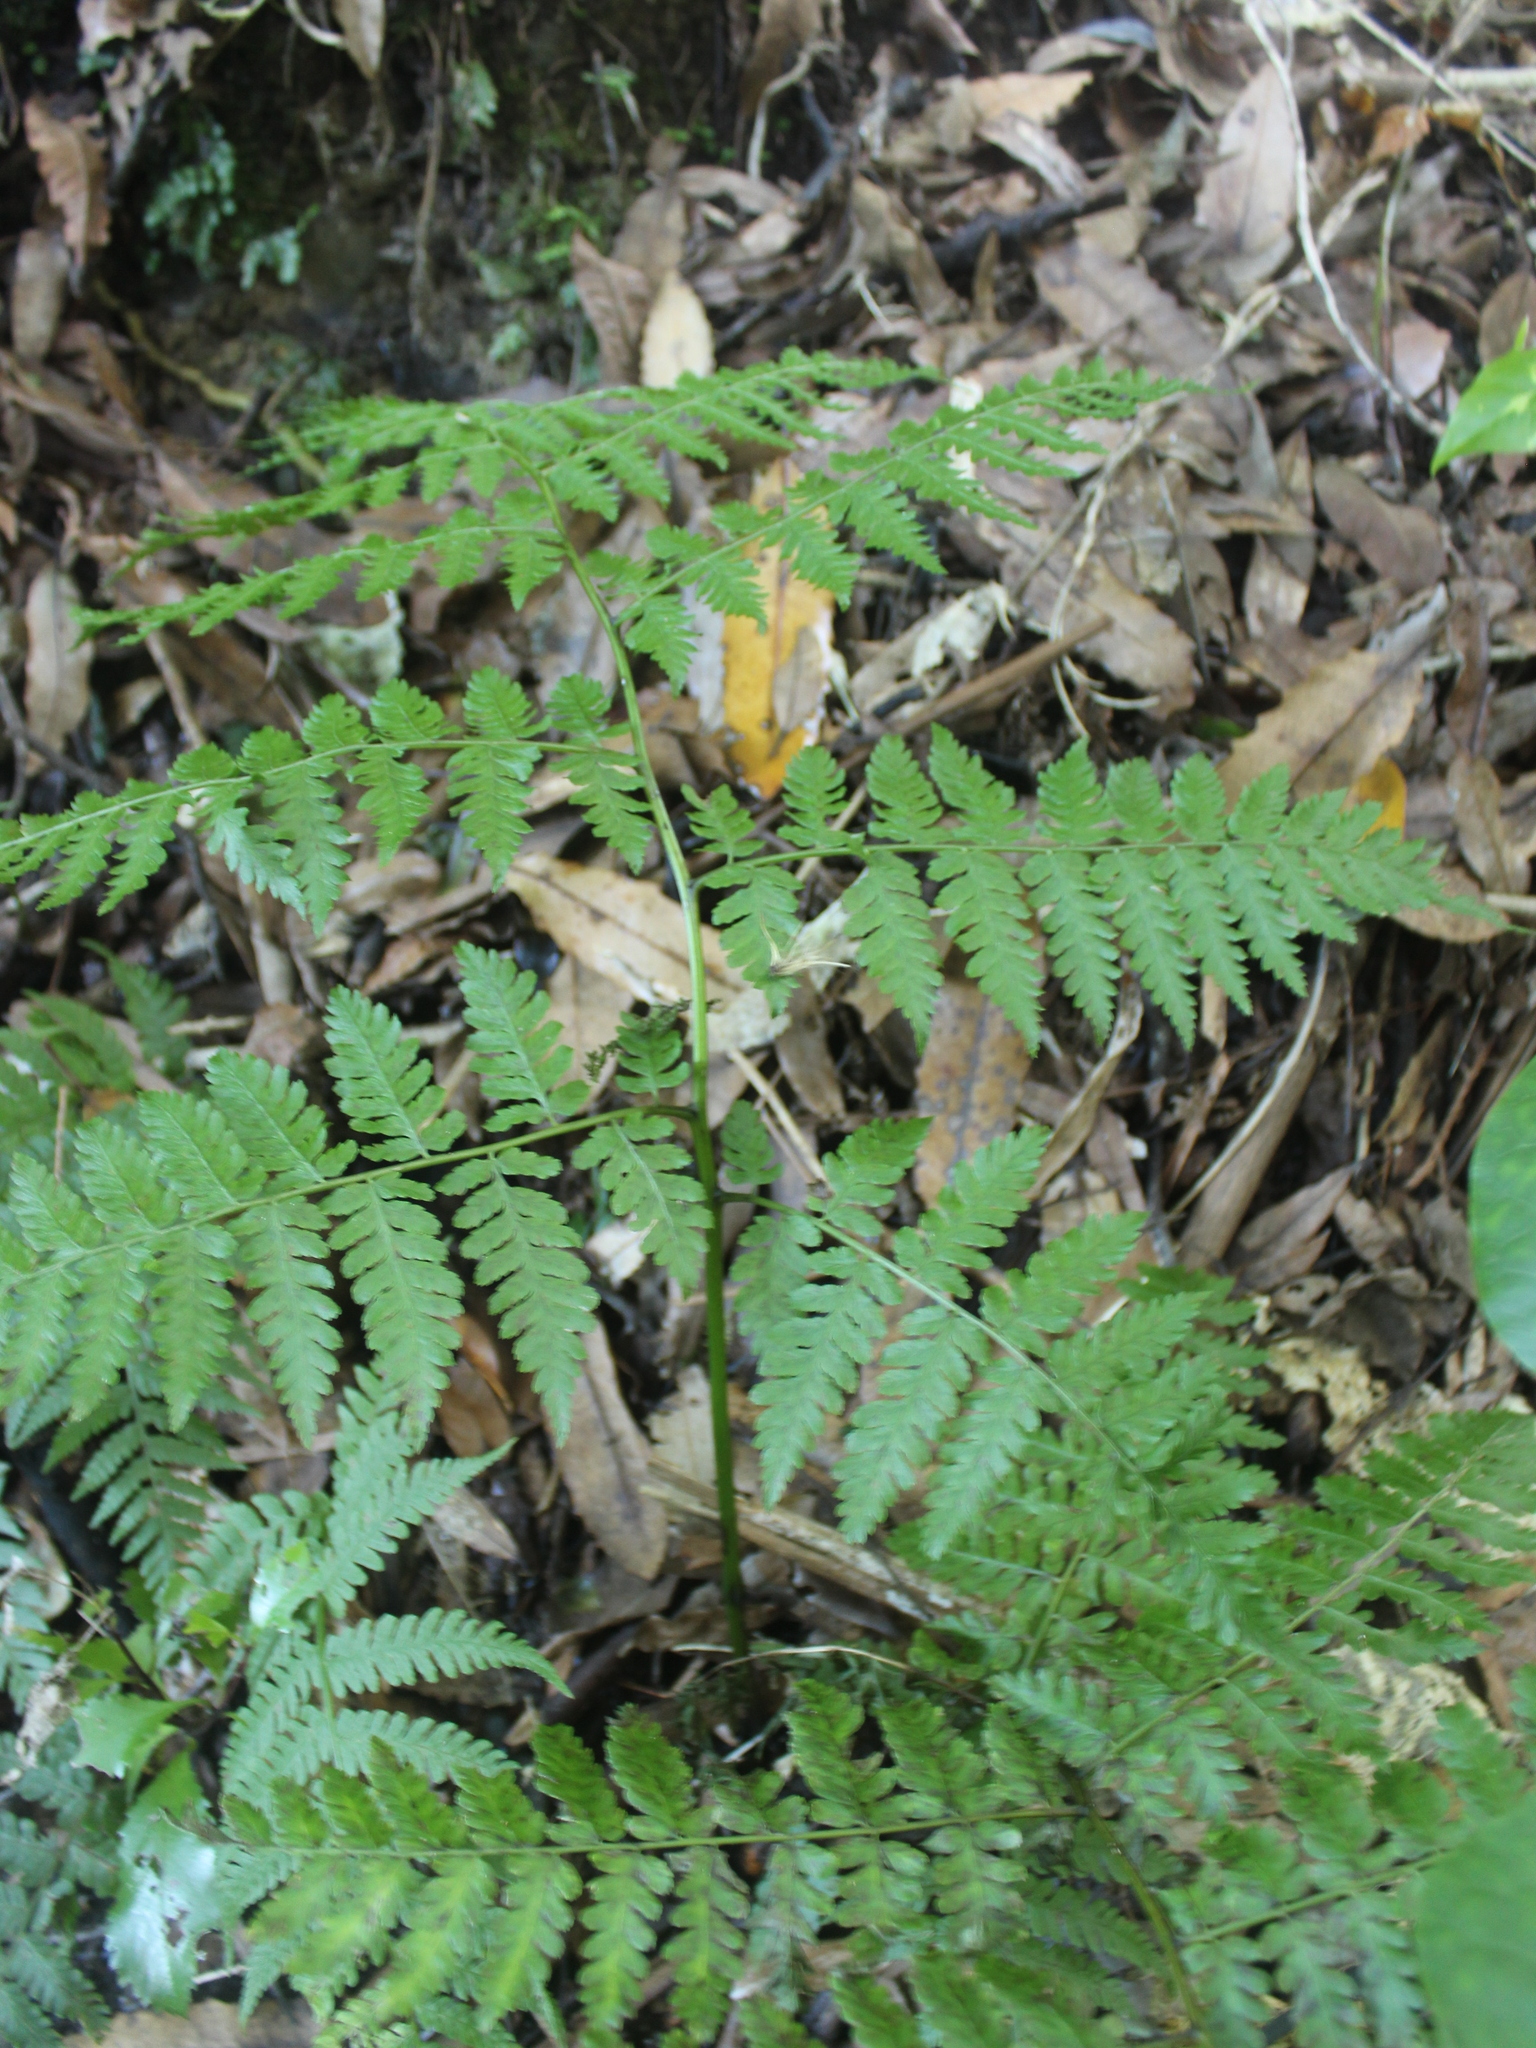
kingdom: Plantae
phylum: Tracheophyta
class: Polypodiopsida
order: Polypodiales
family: Athyriaceae
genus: Diplazium
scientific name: Diplazium australe
